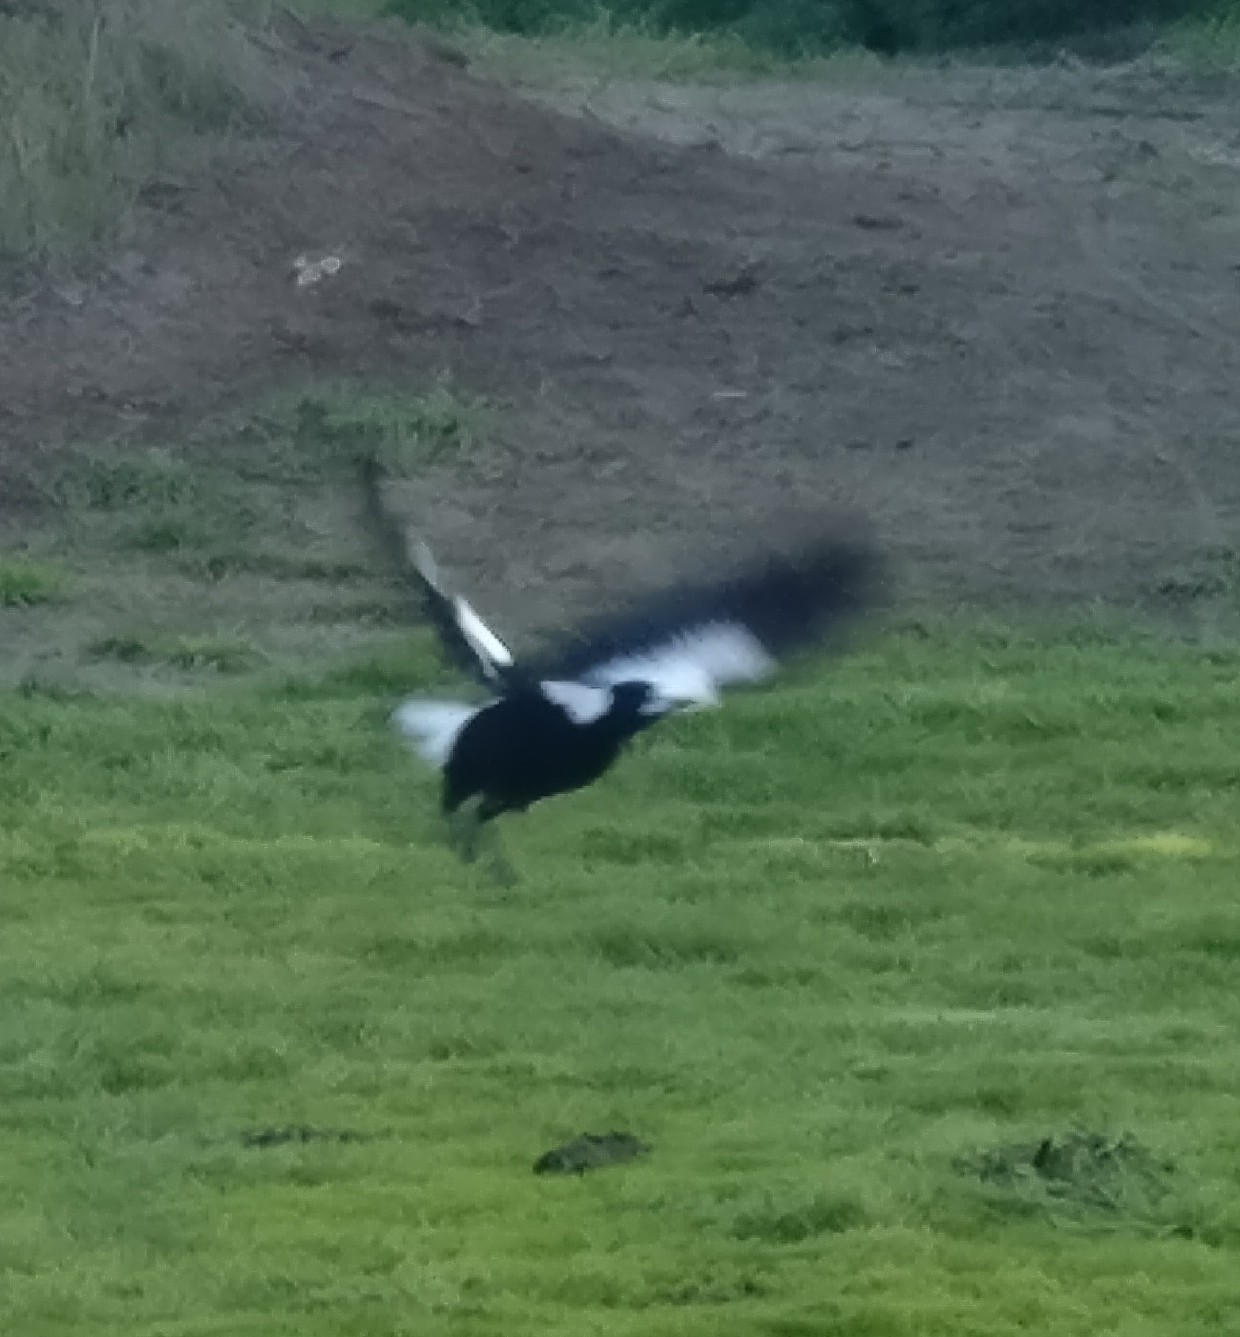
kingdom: Animalia
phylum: Chordata
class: Aves
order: Passeriformes
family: Cracticidae
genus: Gymnorhina
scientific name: Gymnorhina tibicen
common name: Australian magpie
